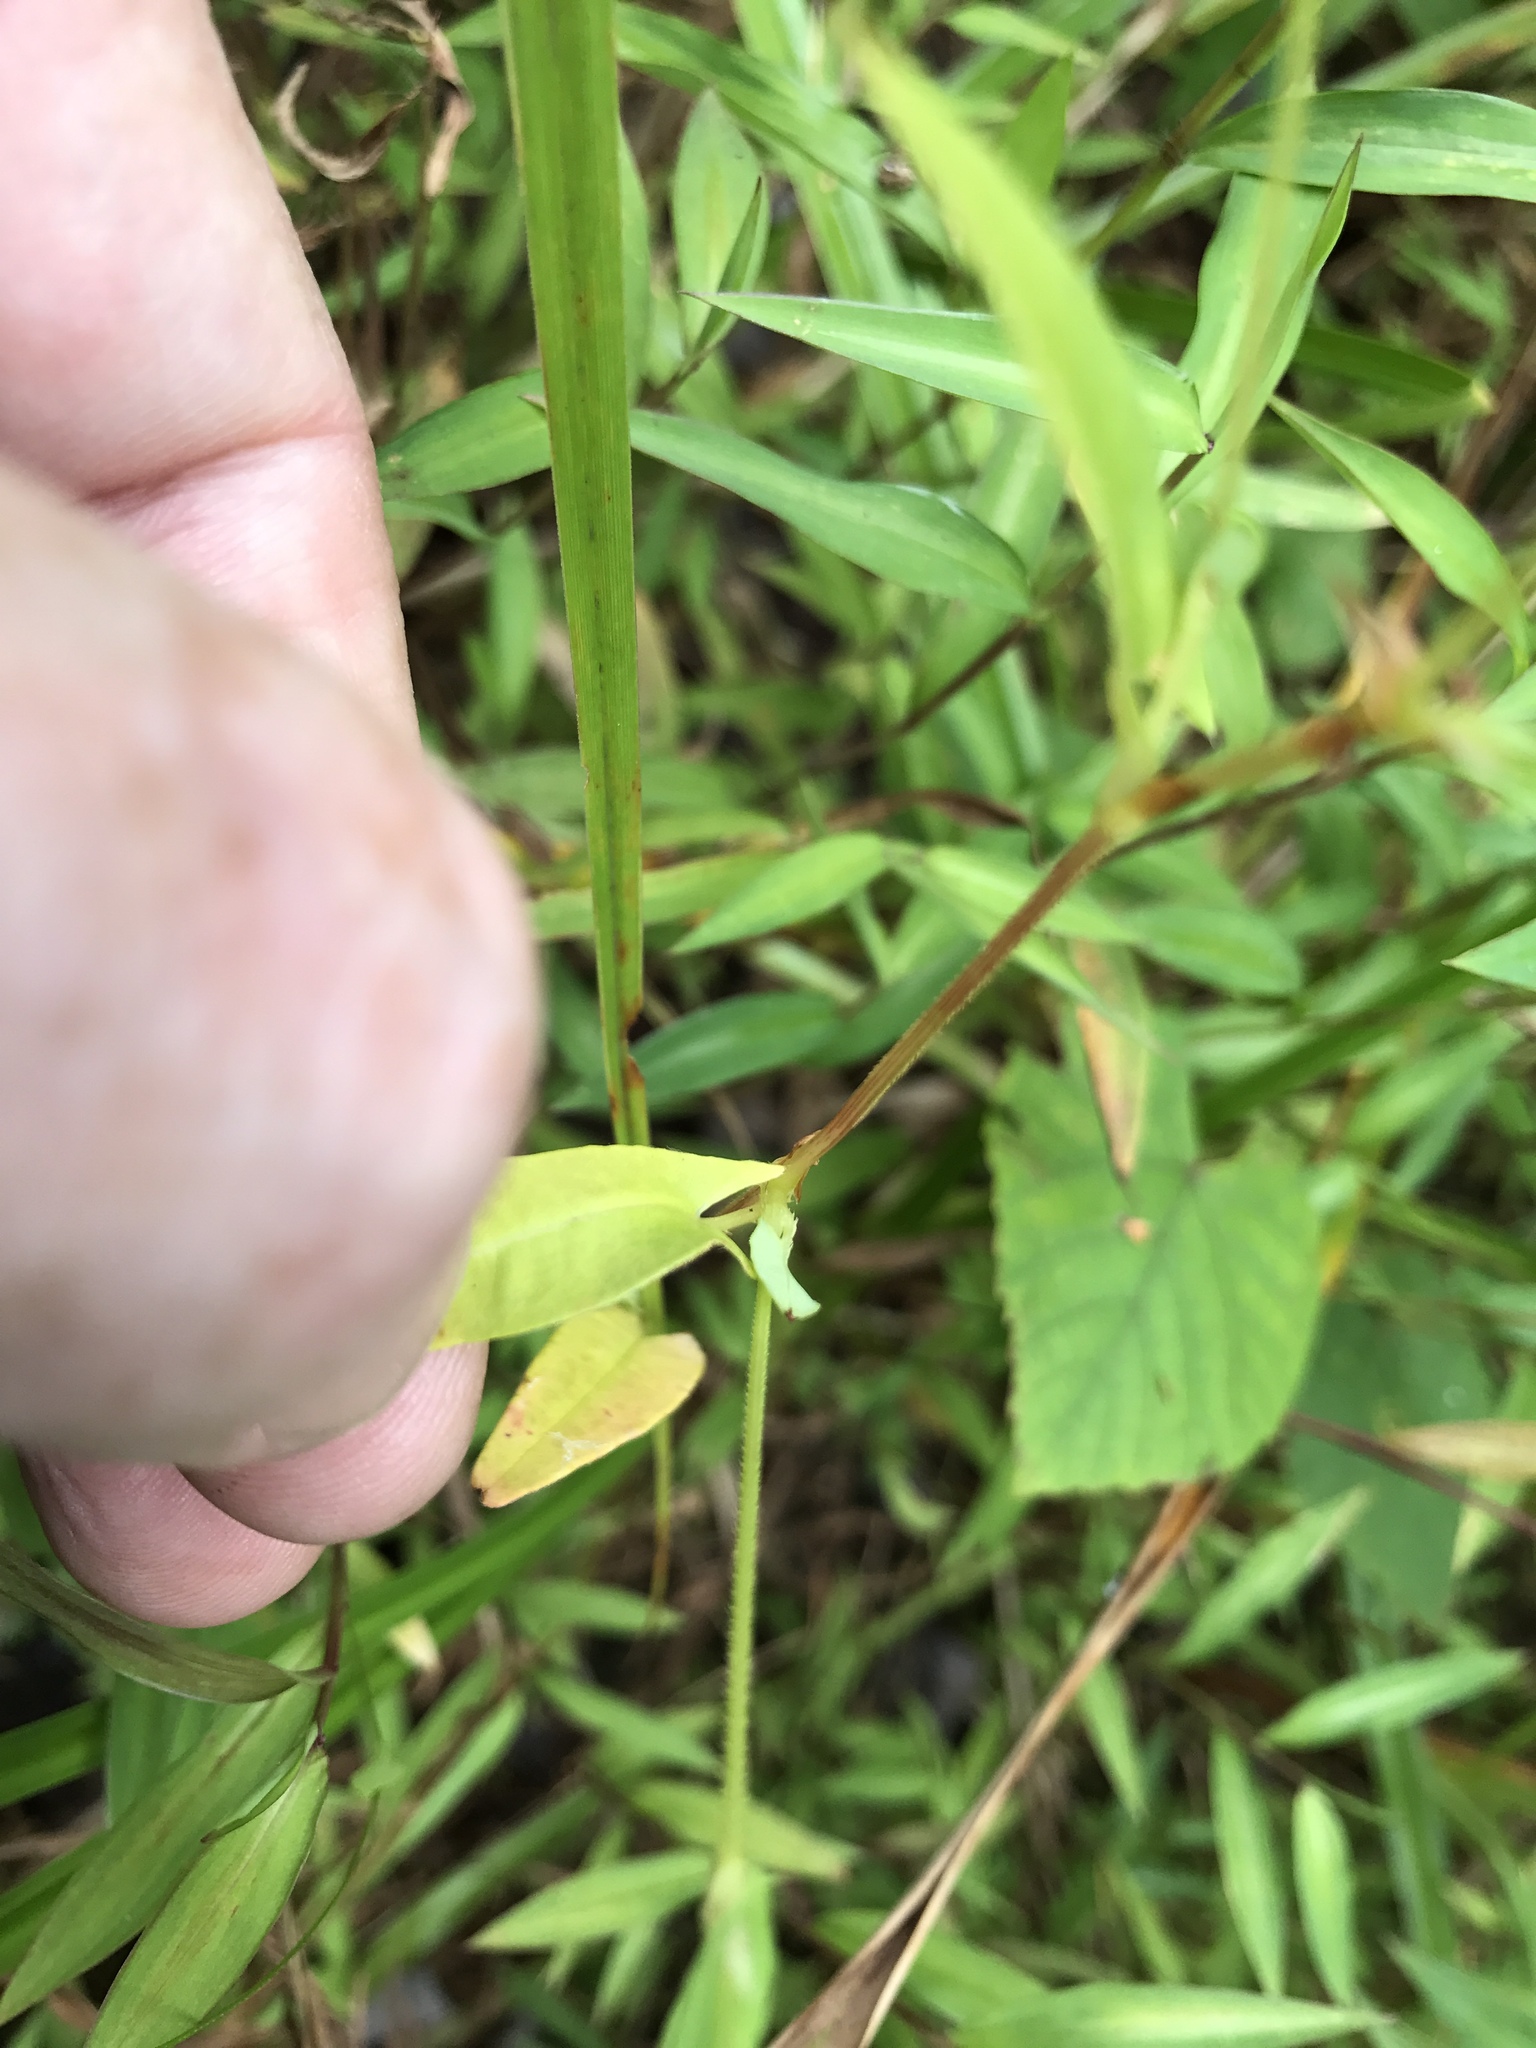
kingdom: Plantae
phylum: Tracheophyta
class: Magnoliopsida
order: Caryophyllales
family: Polygonaceae
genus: Persicaria
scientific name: Persicaria sagittata
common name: American tearthumb
